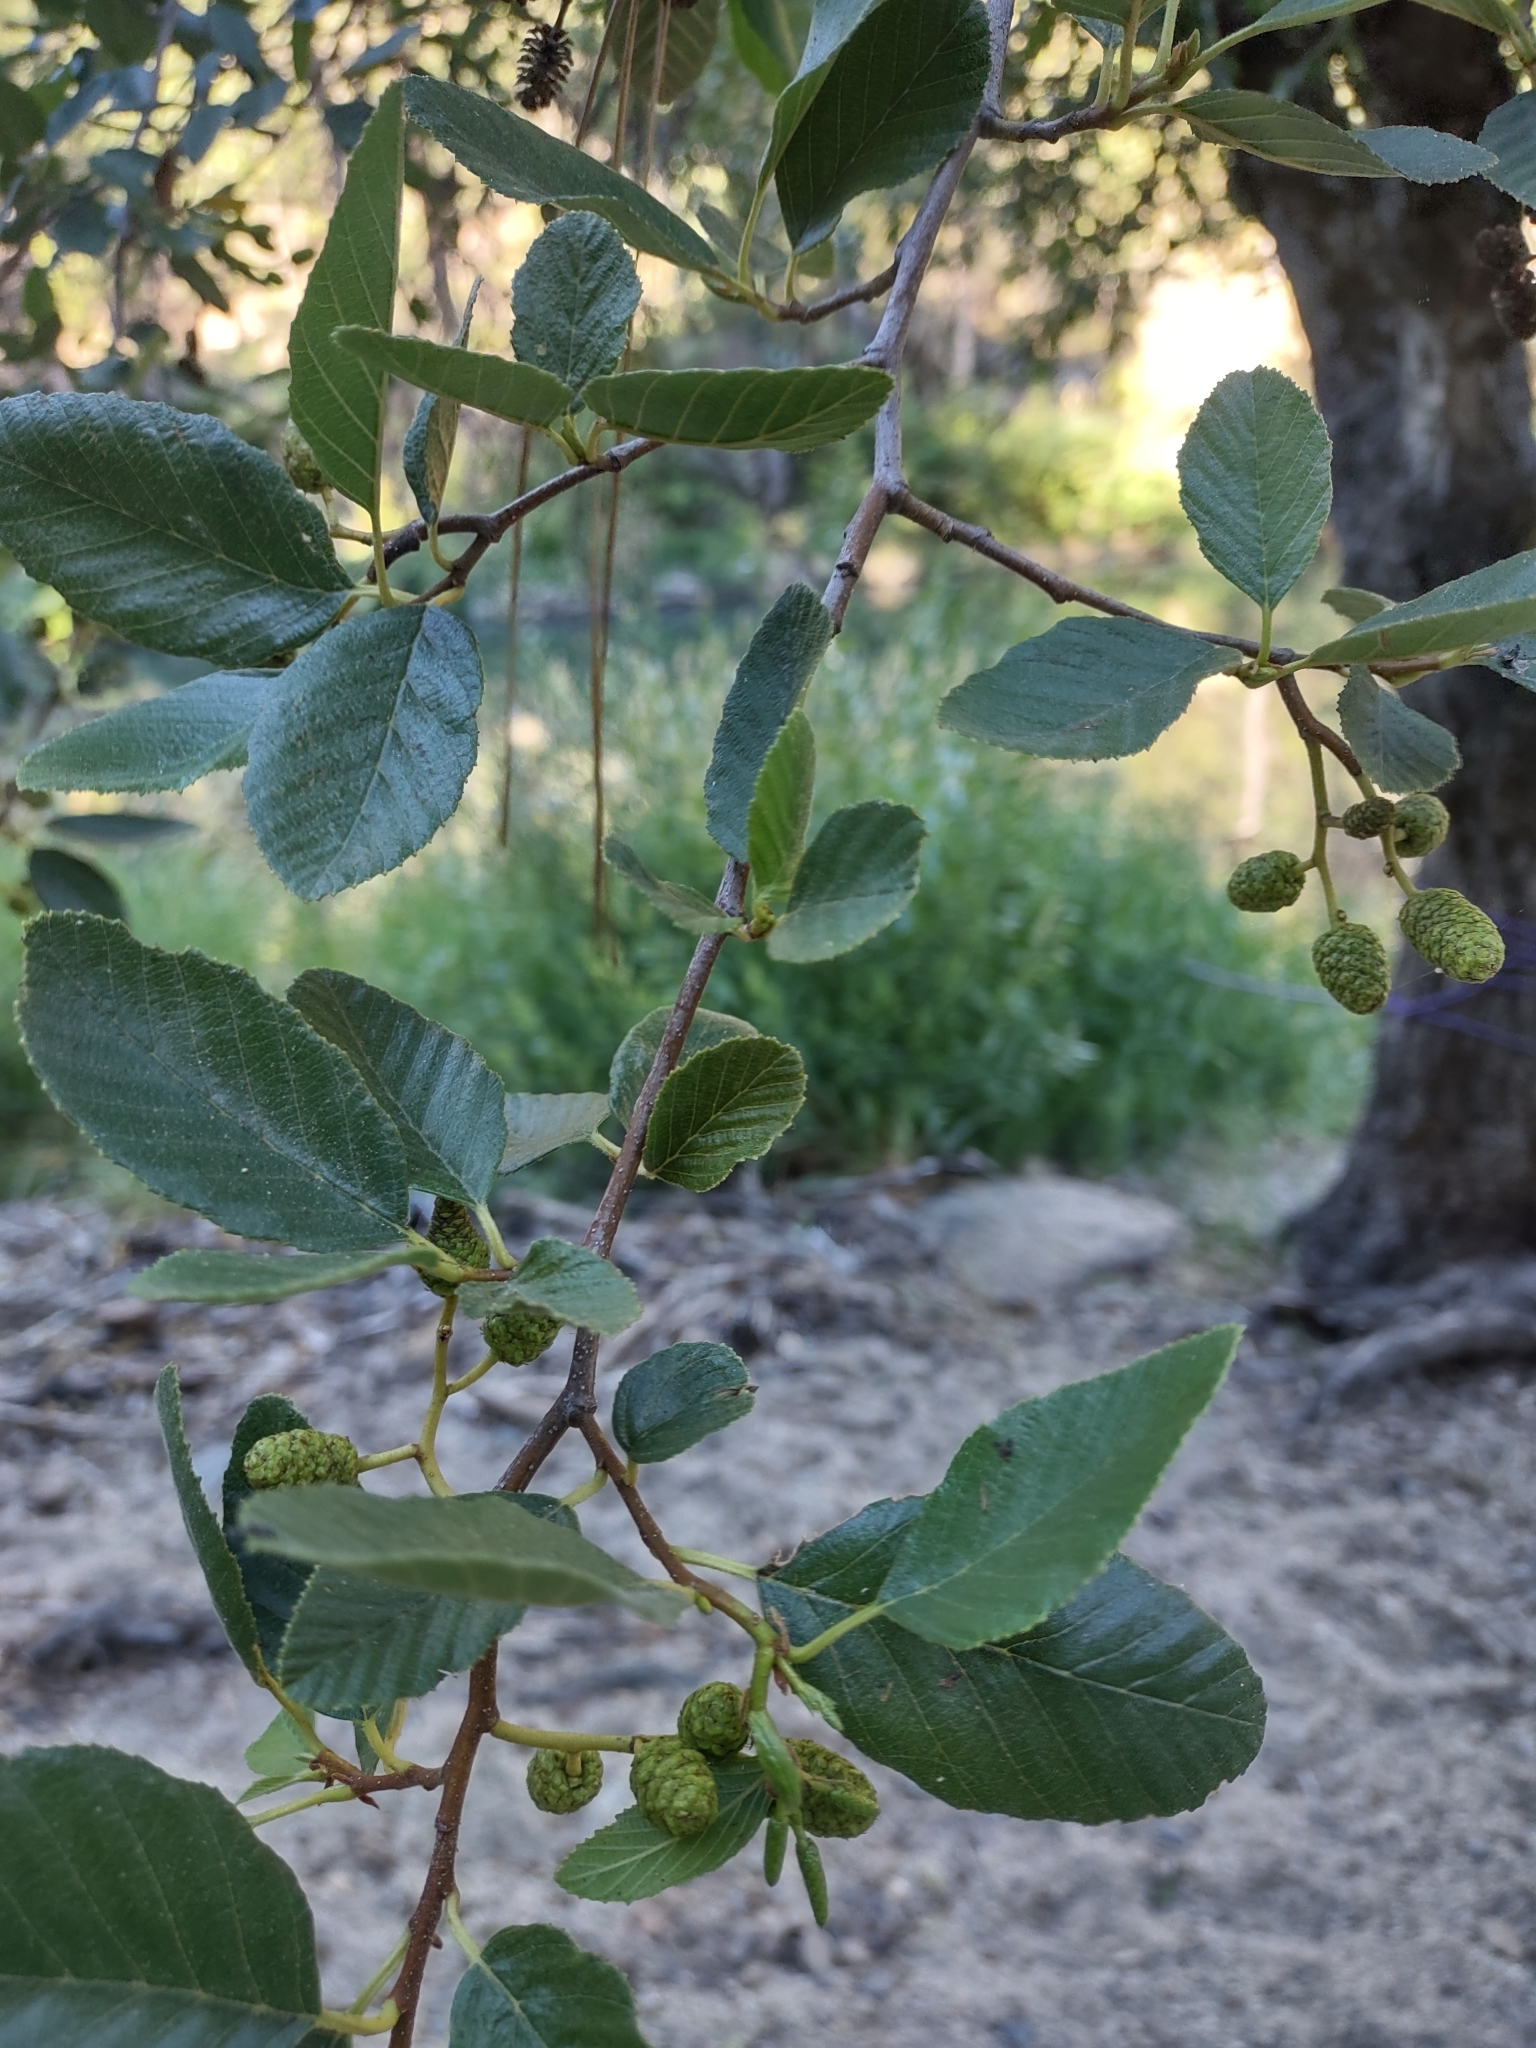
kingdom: Plantae
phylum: Tracheophyta
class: Magnoliopsida
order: Fagales
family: Betulaceae
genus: Alnus
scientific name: Alnus rhombifolia
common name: California alder
